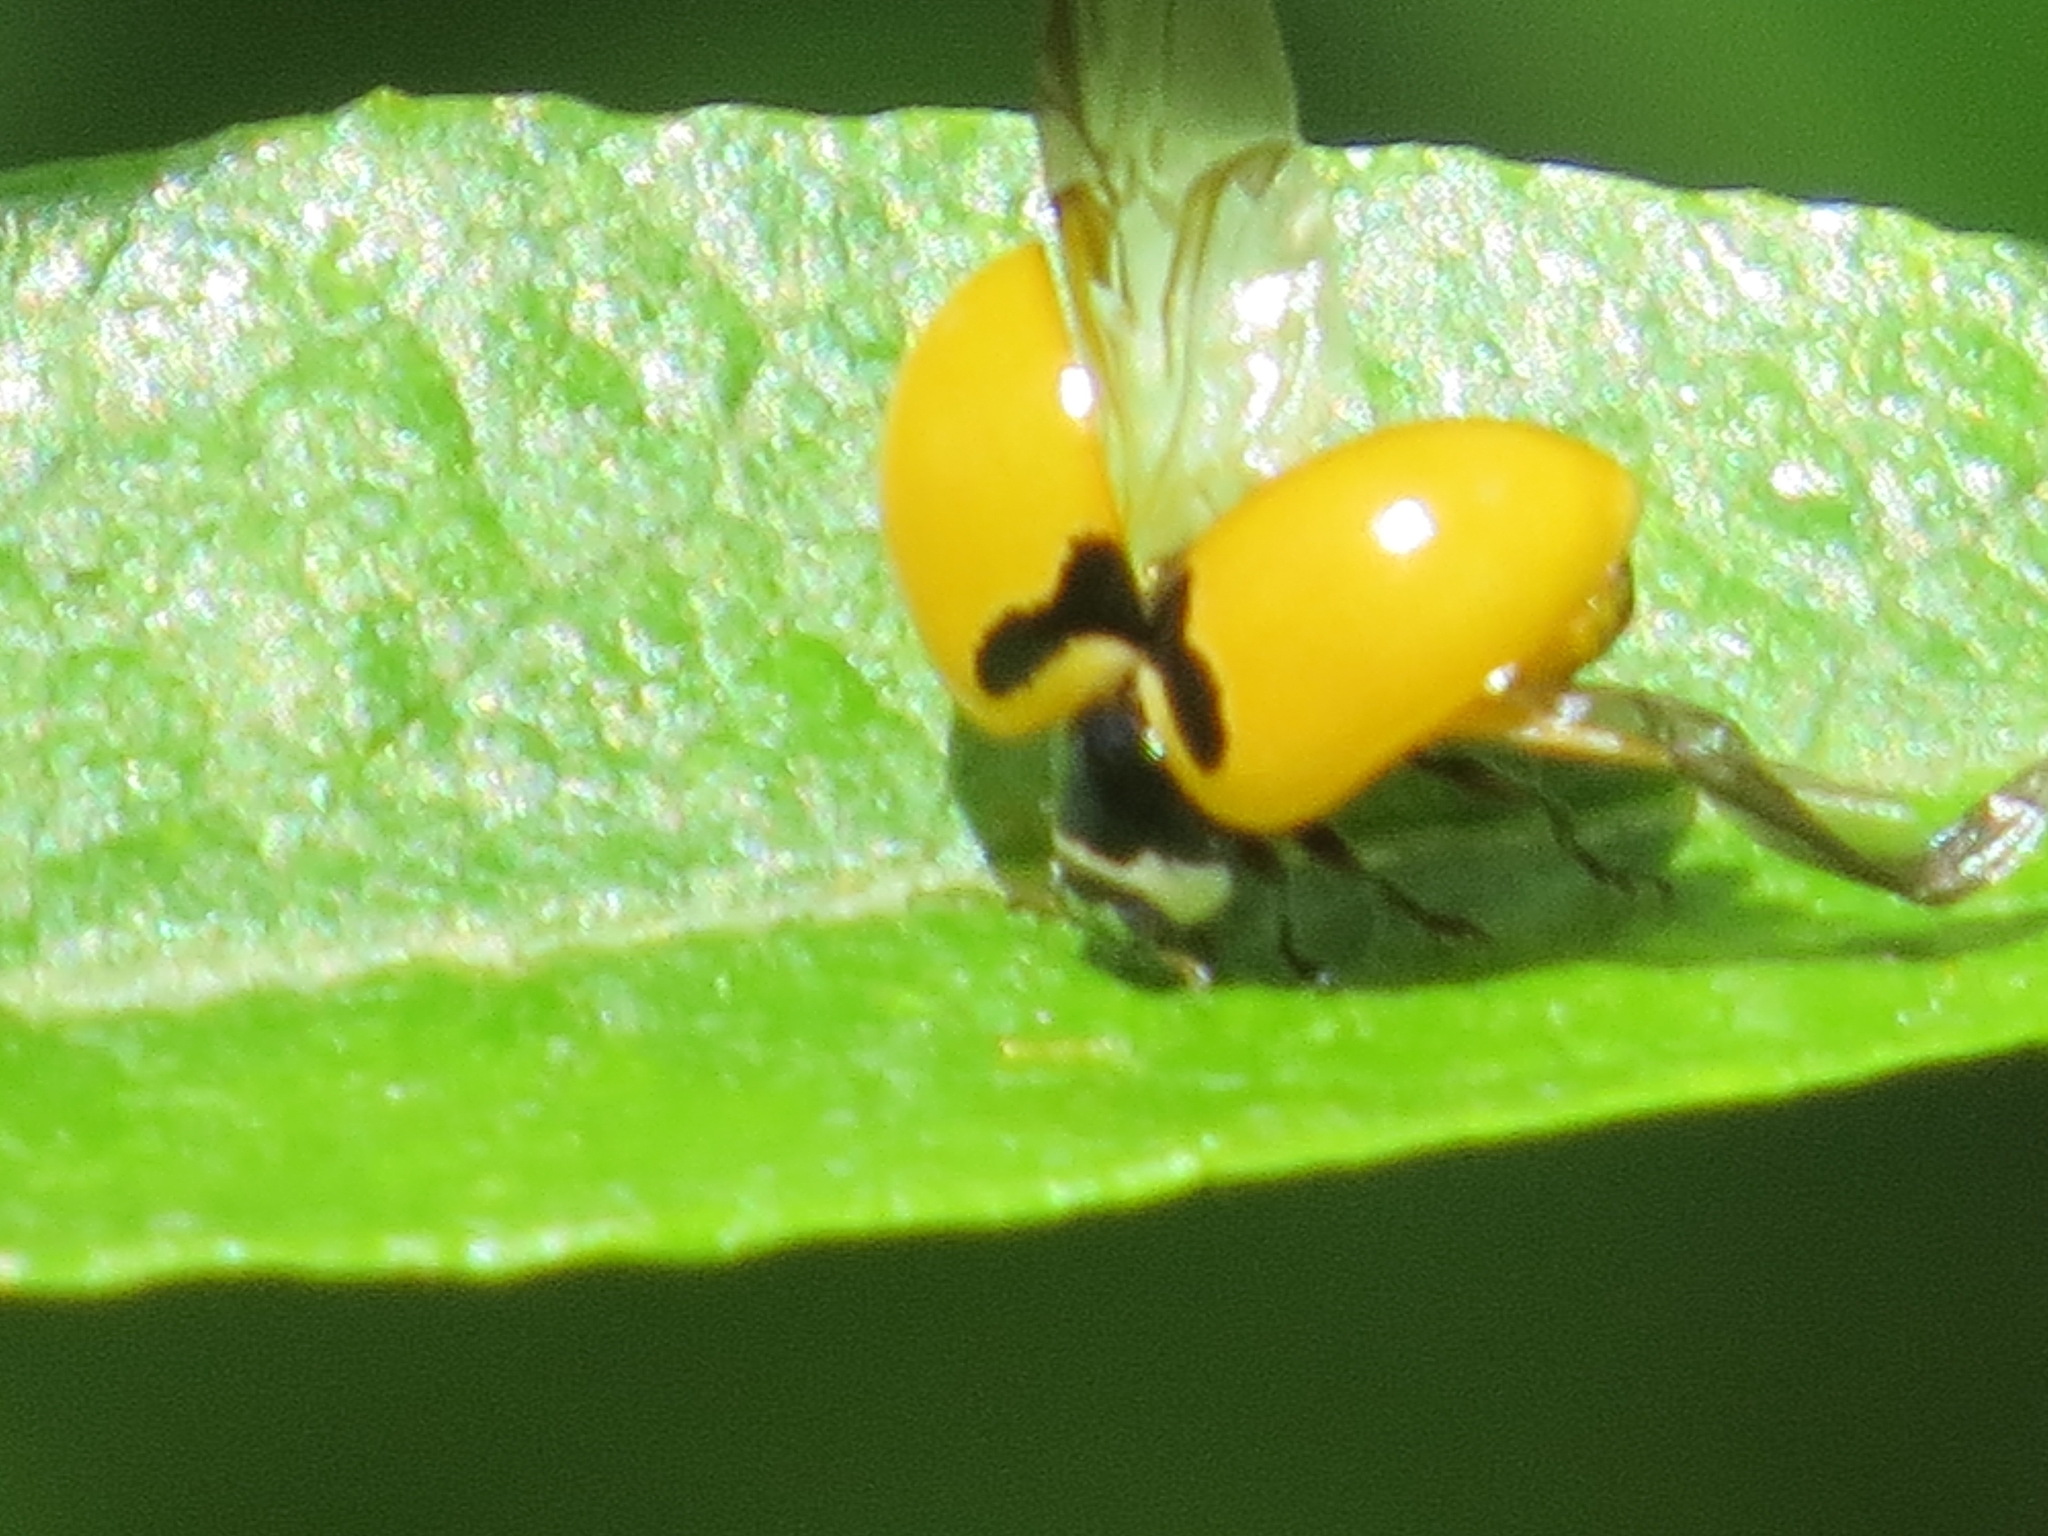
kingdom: Animalia
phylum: Arthropoda
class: Insecta
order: Coleoptera
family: Coccinellidae
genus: Coccinella
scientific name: Coccinella trifasciata
